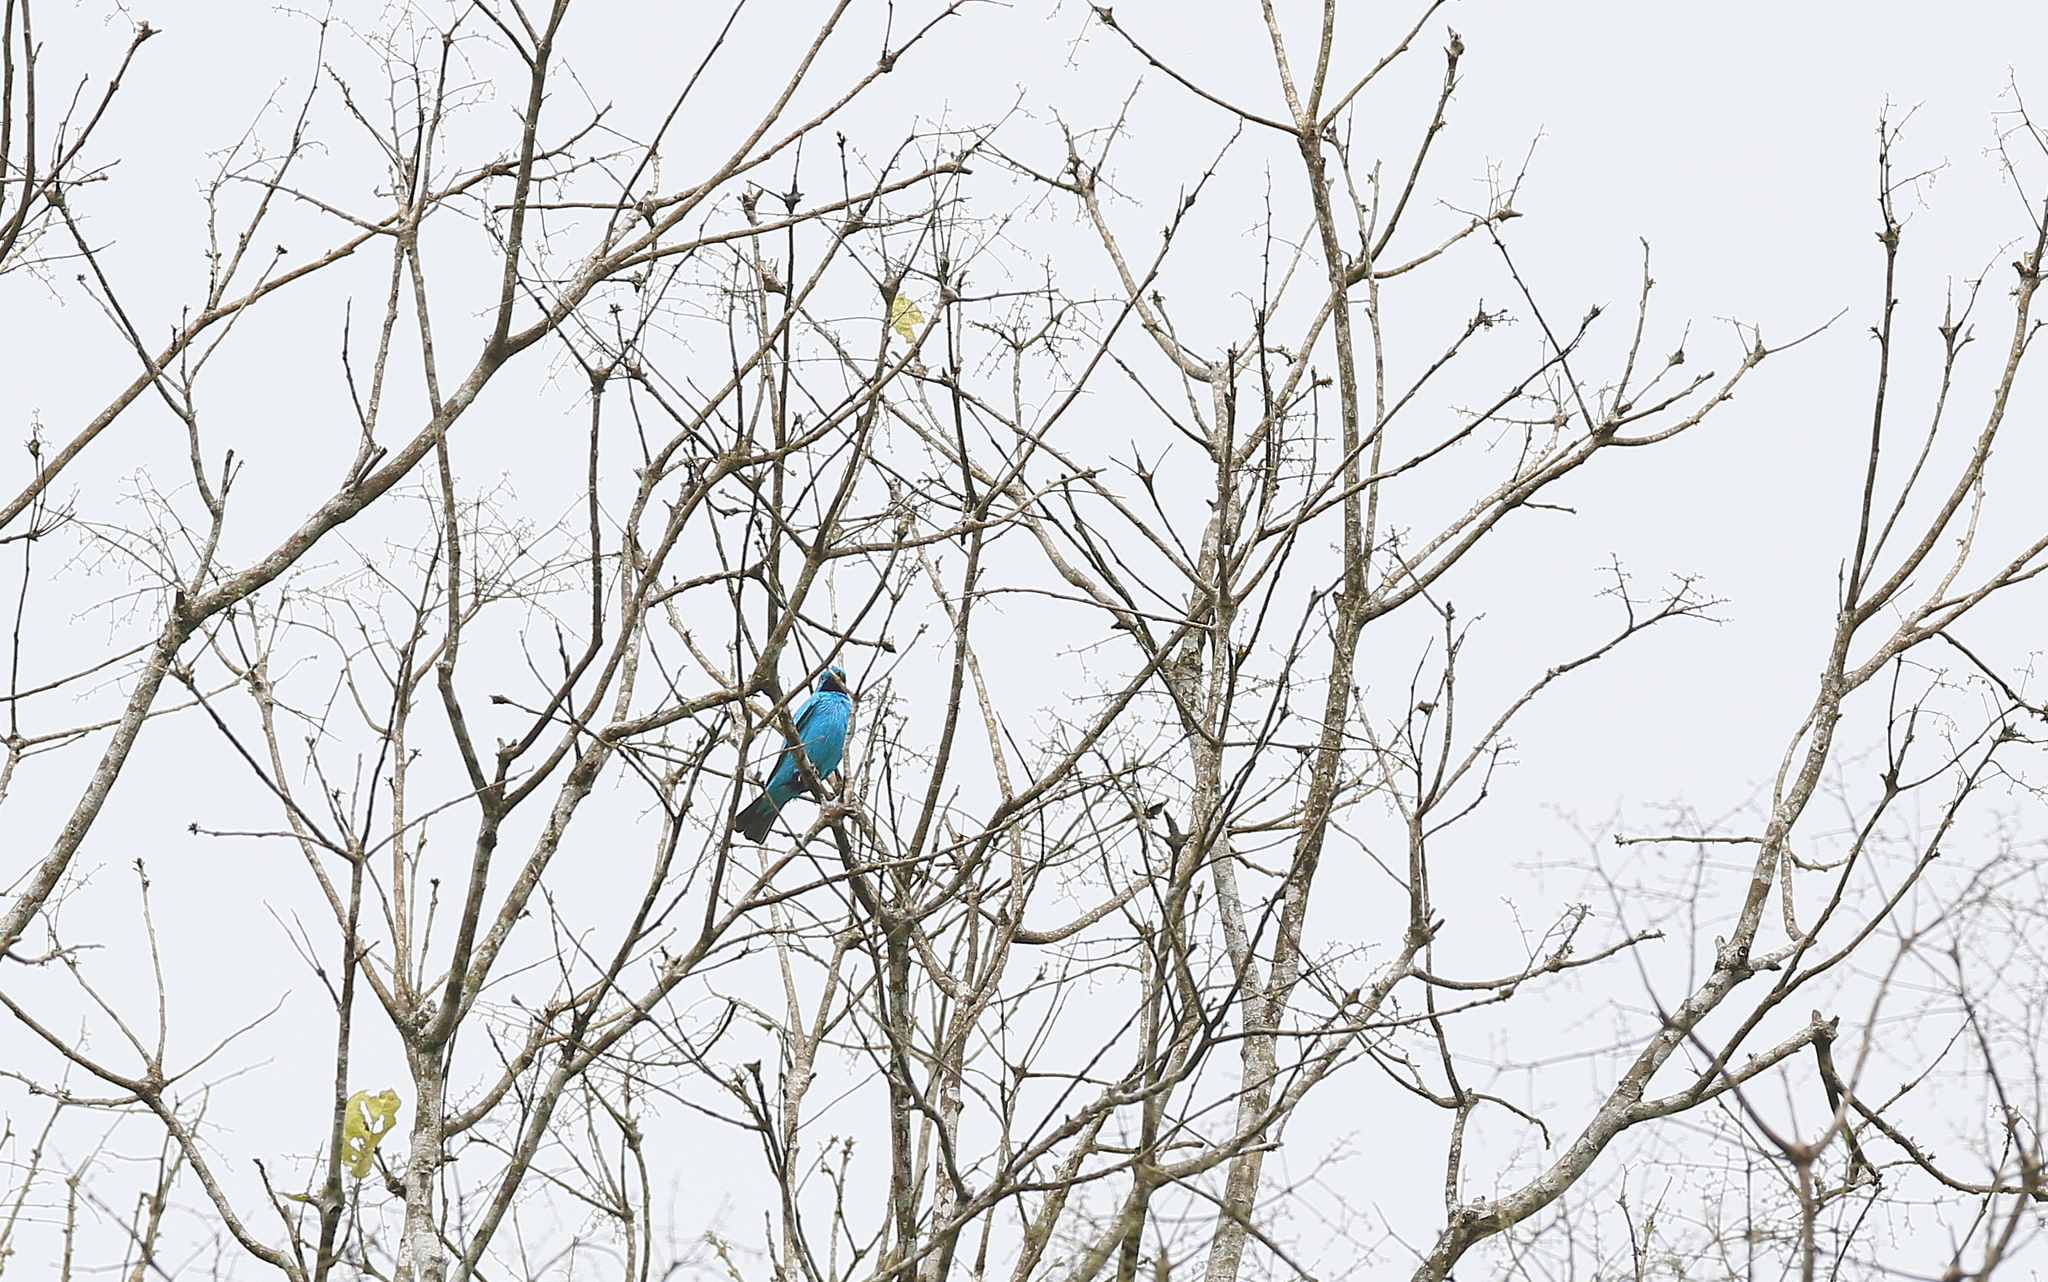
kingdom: Animalia
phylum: Chordata
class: Aves
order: Passeriformes
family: Cotingidae
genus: Cotinga
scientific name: Cotinga maynana
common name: Plum-throated cotinga
